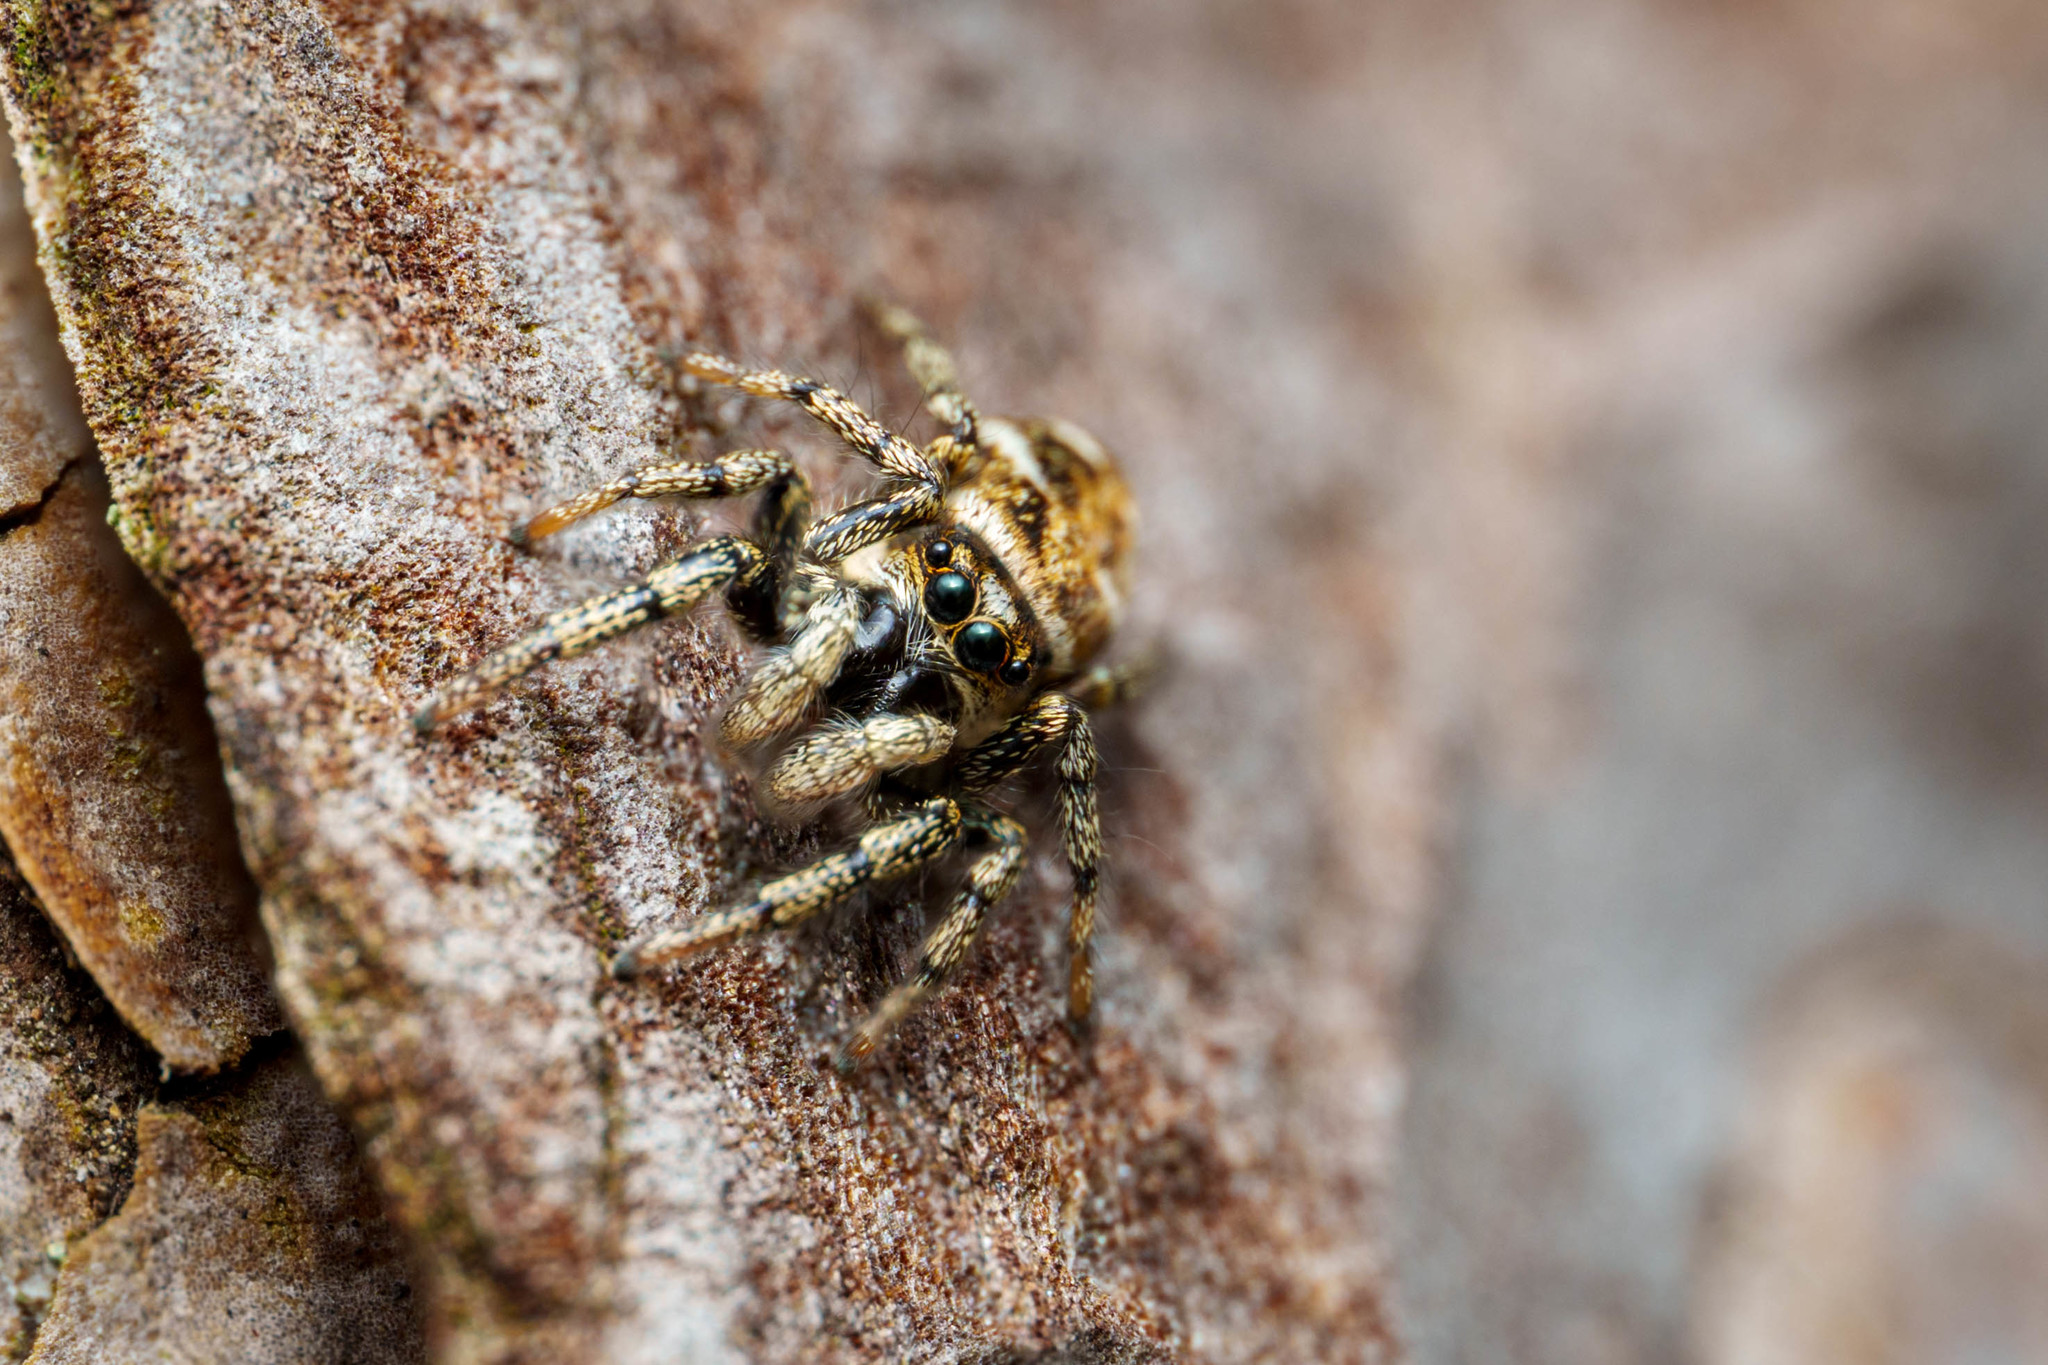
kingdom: Animalia
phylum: Arthropoda
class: Arachnida
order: Araneae
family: Salticidae
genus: Salticus
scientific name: Salticus scenicus
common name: Zebra jumper
